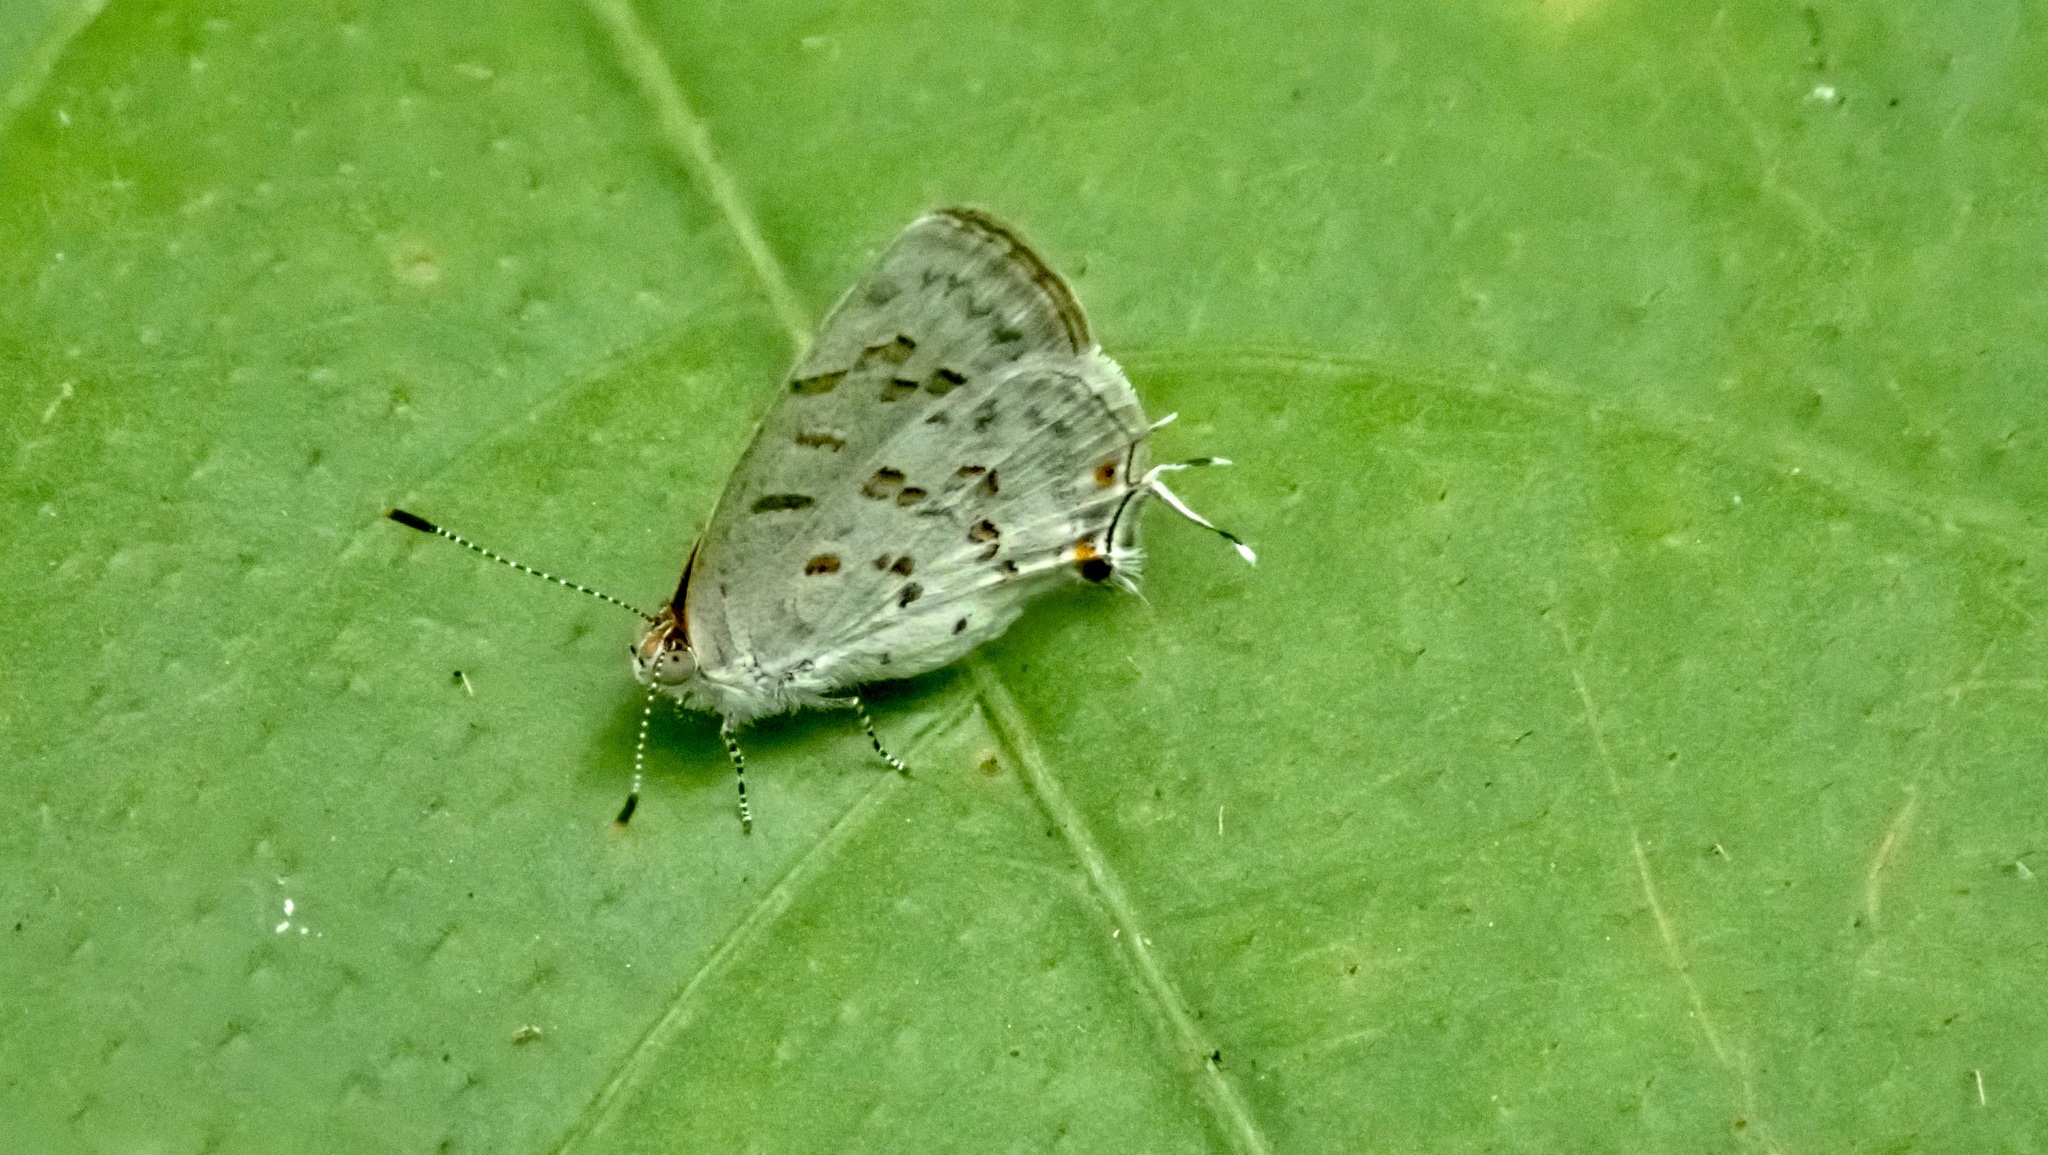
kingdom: Animalia
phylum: Arthropoda
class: Insecta
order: Lepidoptera
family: Lycaenidae
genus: Thecla
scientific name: Thecla una
